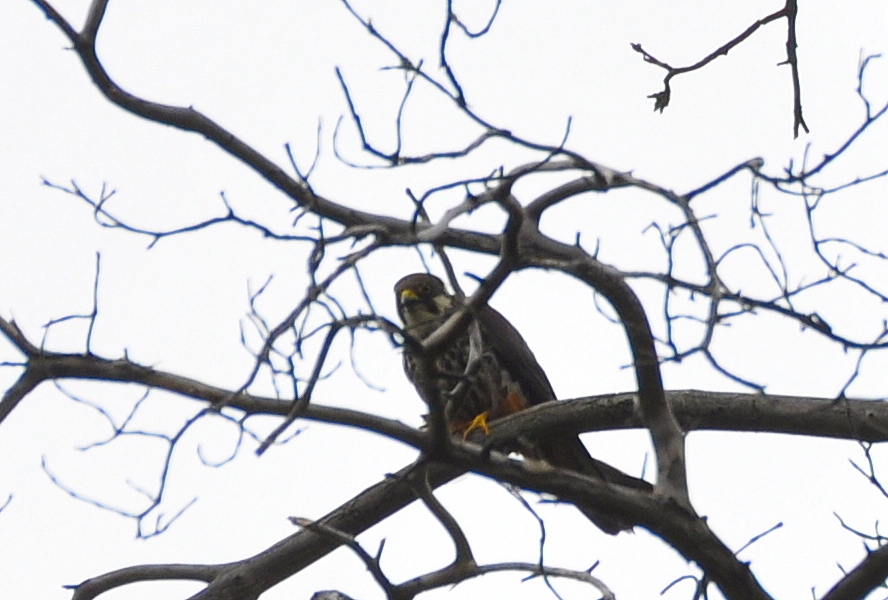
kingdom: Animalia
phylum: Chordata
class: Aves
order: Falconiformes
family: Falconidae
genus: Falco
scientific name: Falco subbuteo
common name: Eurasian hobby
